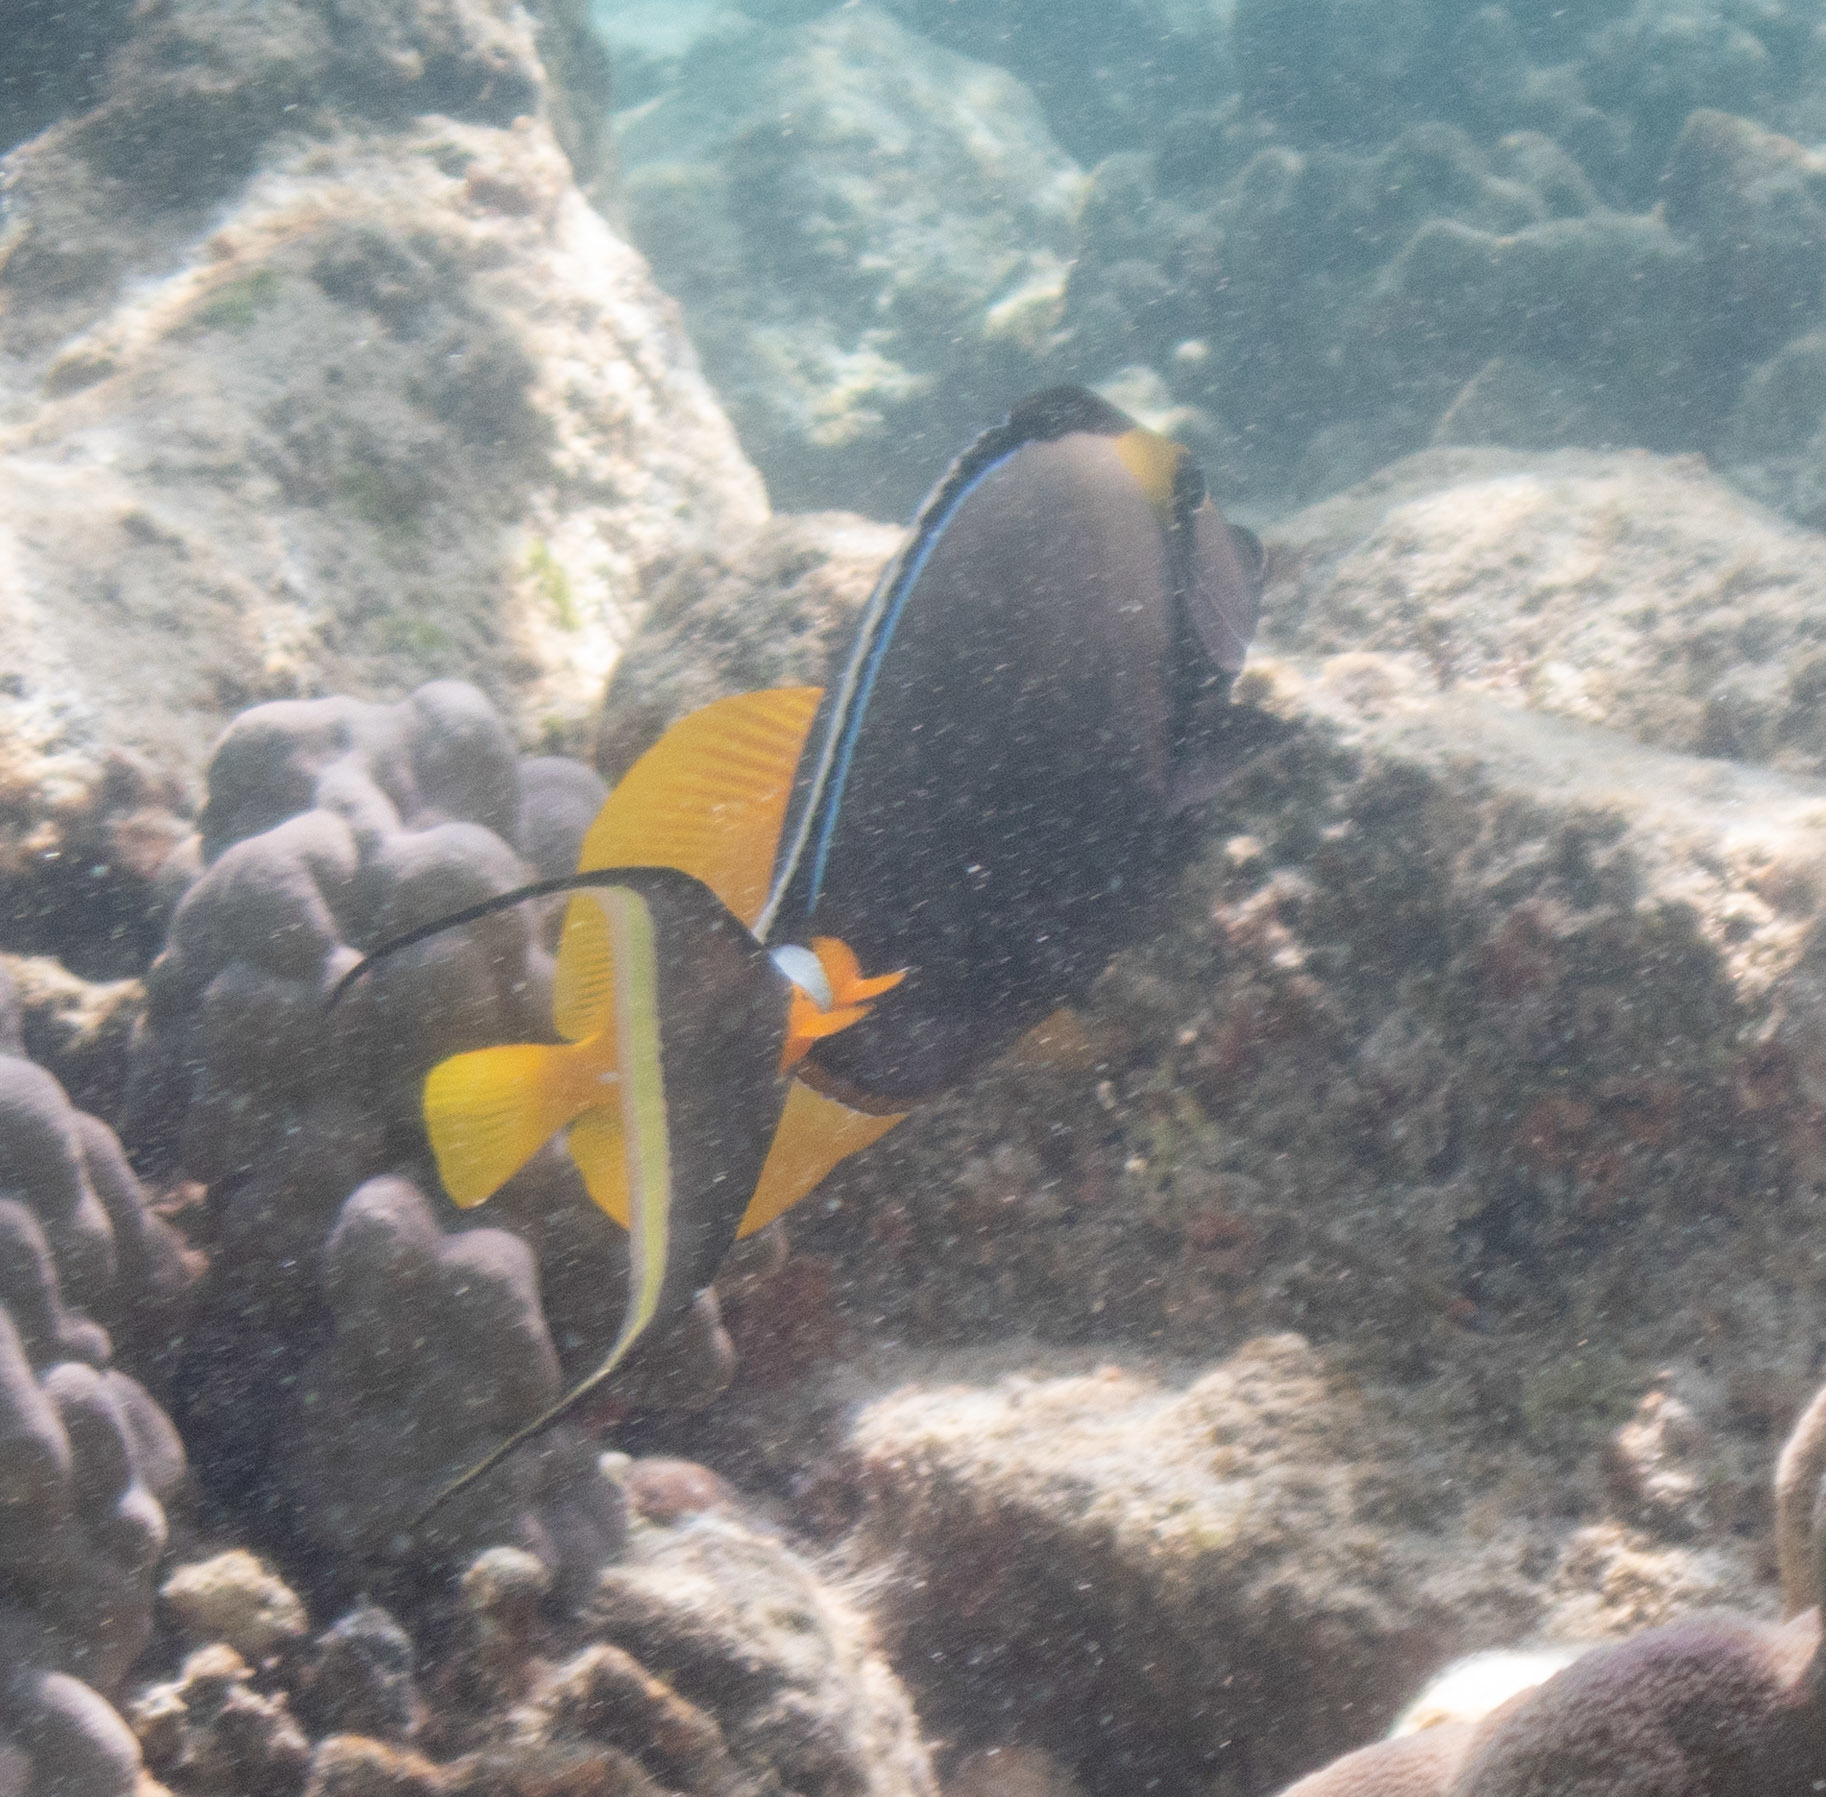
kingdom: Animalia
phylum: Chordata
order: Perciformes
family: Acanthuridae
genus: Naso
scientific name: Naso lituratus
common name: Orangespine unicornfish
